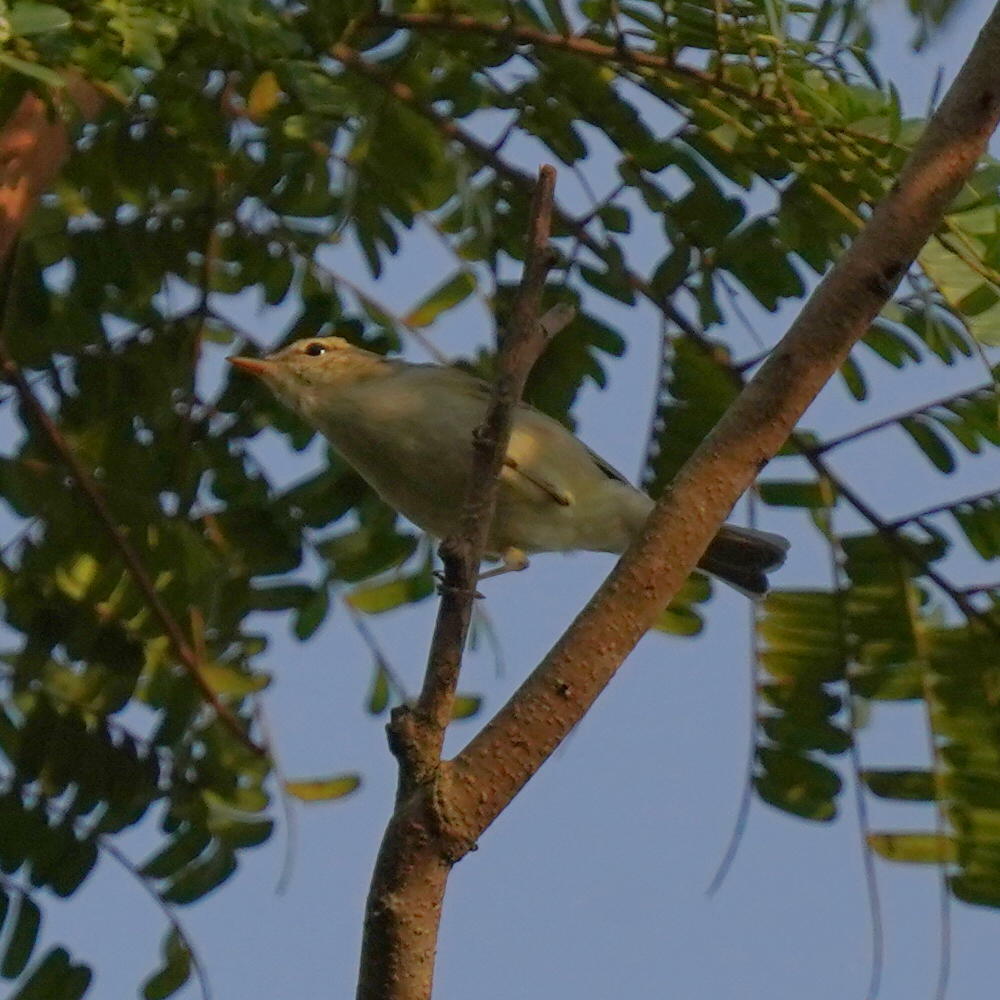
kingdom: Animalia
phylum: Chordata
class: Aves
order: Passeriformes
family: Phylloscopidae
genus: Phylloscopus
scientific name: Phylloscopus trochiloides
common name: Greenish warbler
